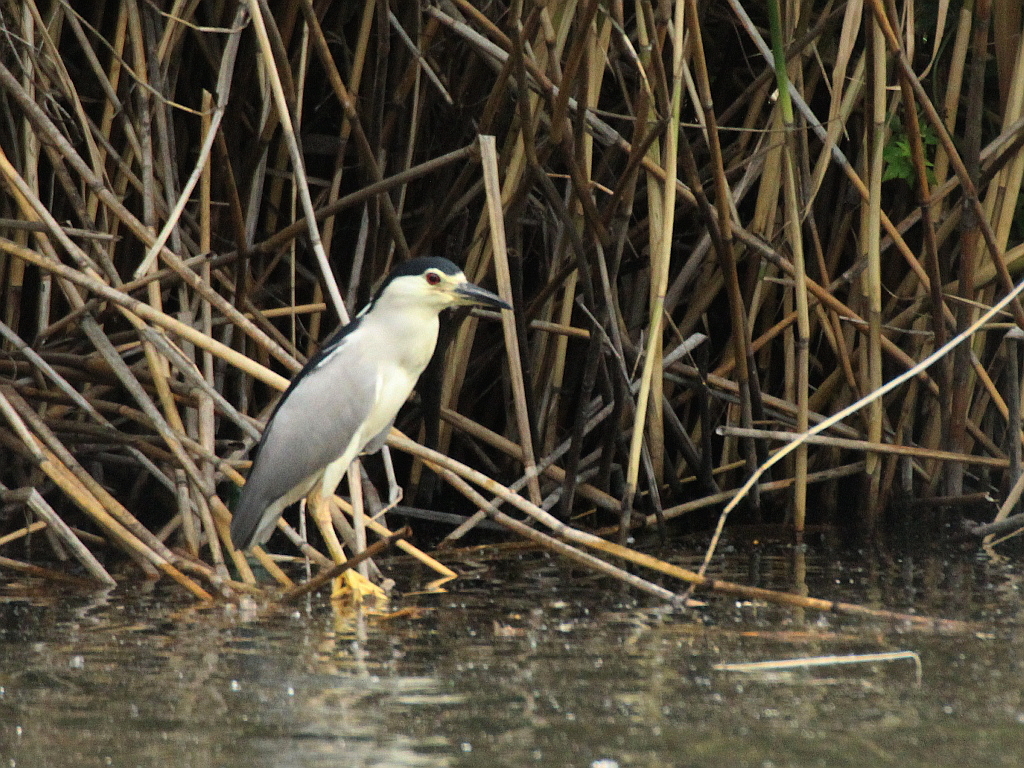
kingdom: Animalia
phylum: Chordata
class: Aves
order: Pelecaniformes
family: Ardeidae
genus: Nycticorax
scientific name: Nycticorax nycticorax
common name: Black-crowned night heron
